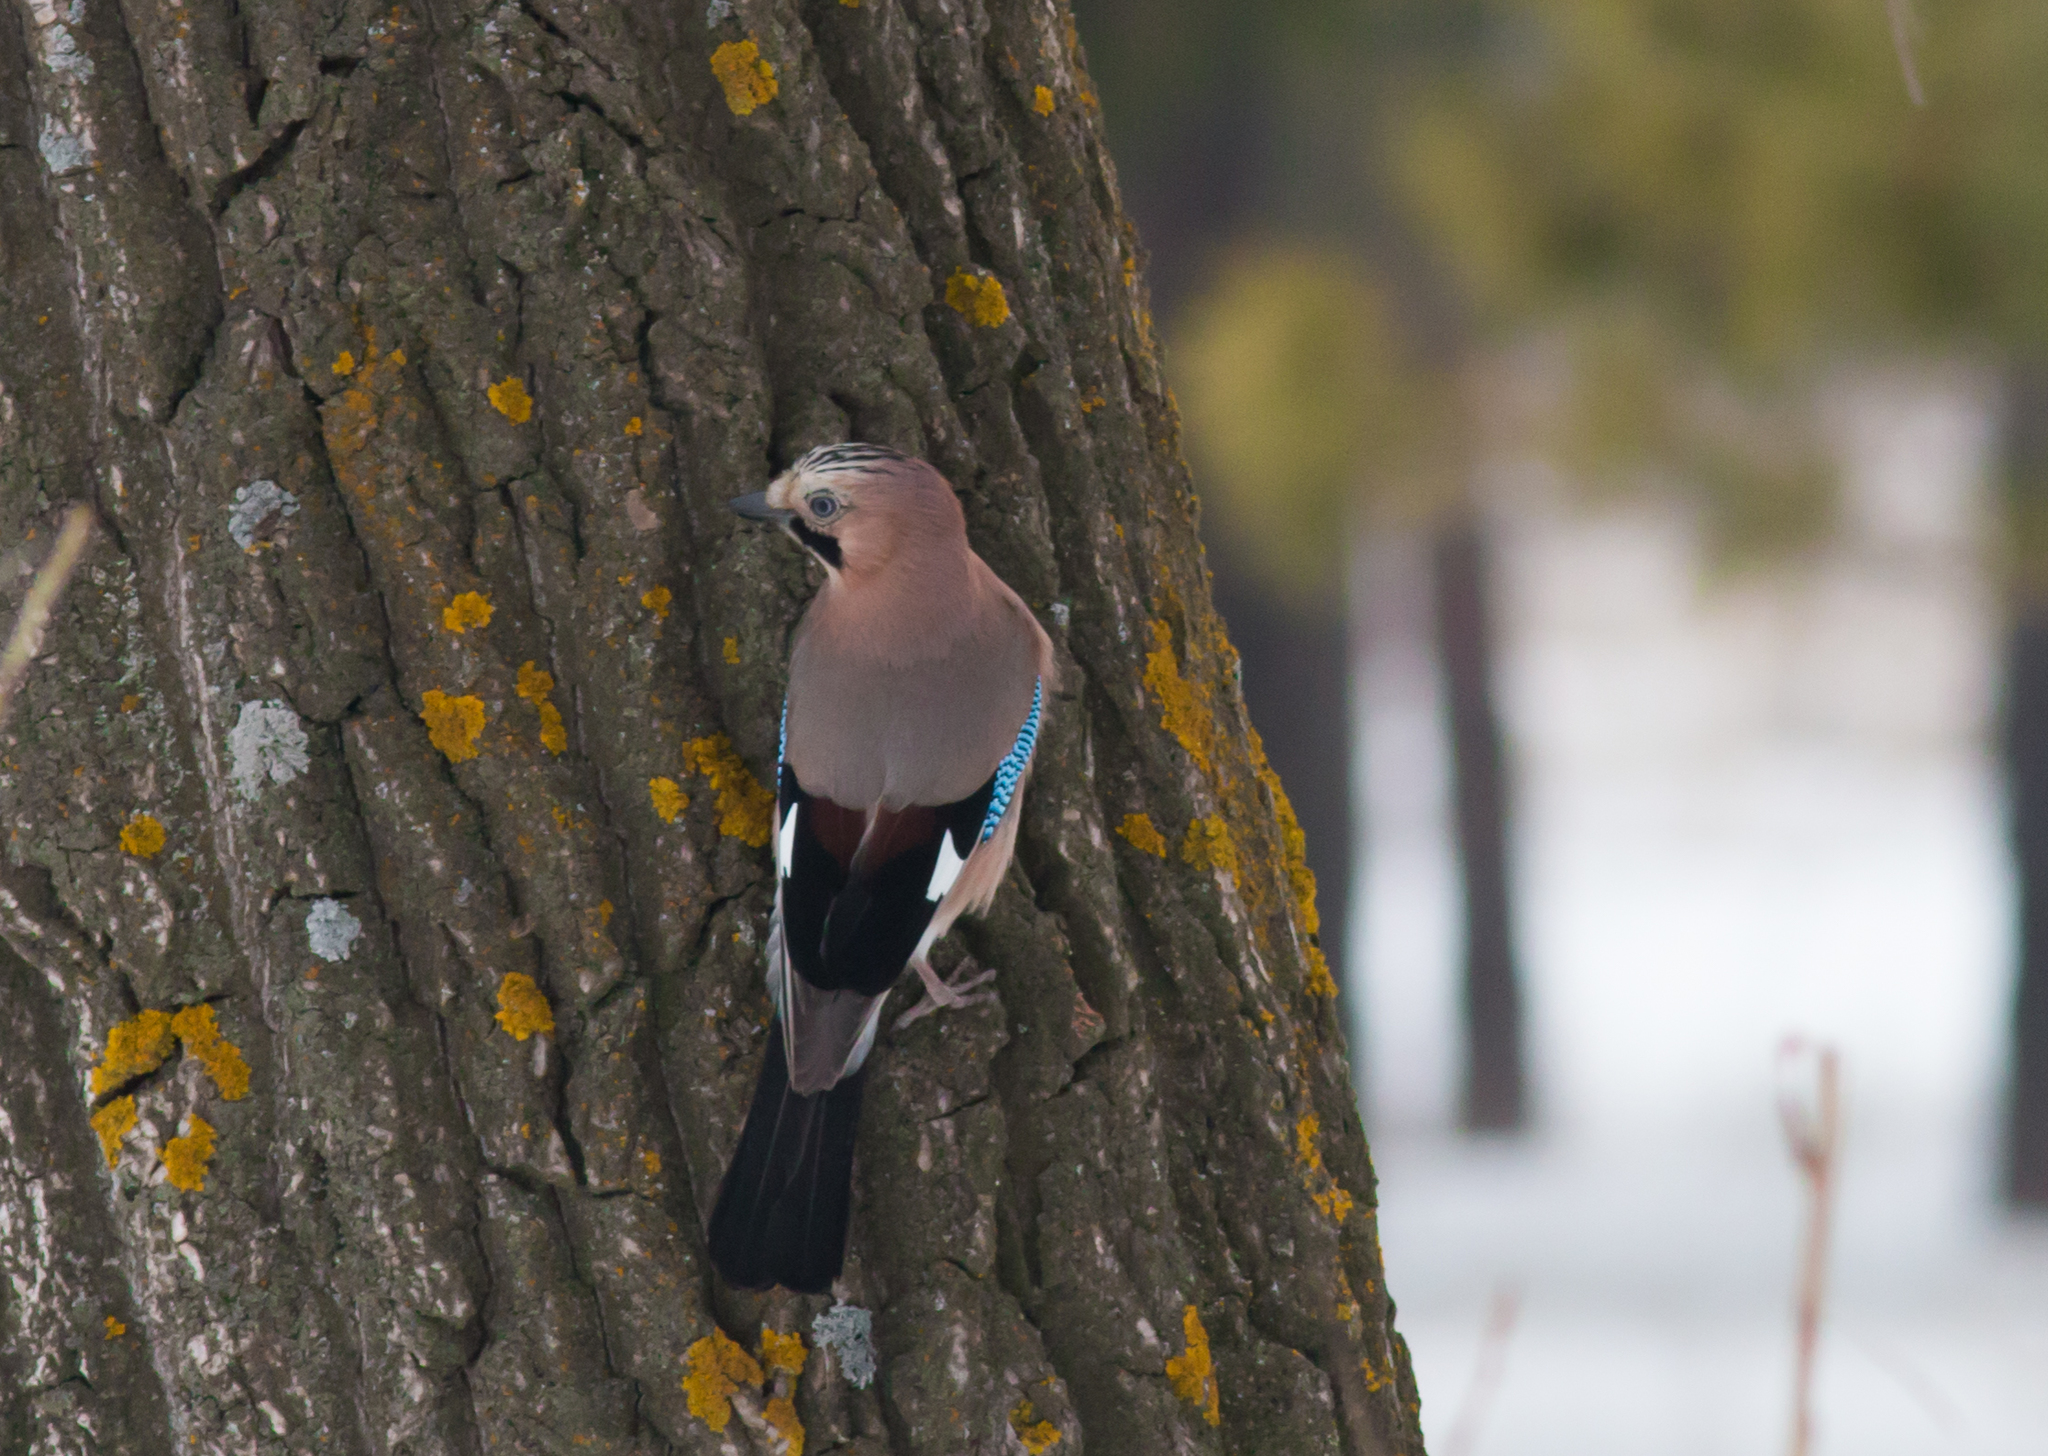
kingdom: Animalia
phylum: Chordata
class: Aves
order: Passeriformes
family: Corvidae
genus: Garrulus
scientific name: Garrulus glandarius
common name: Eurasian jay
